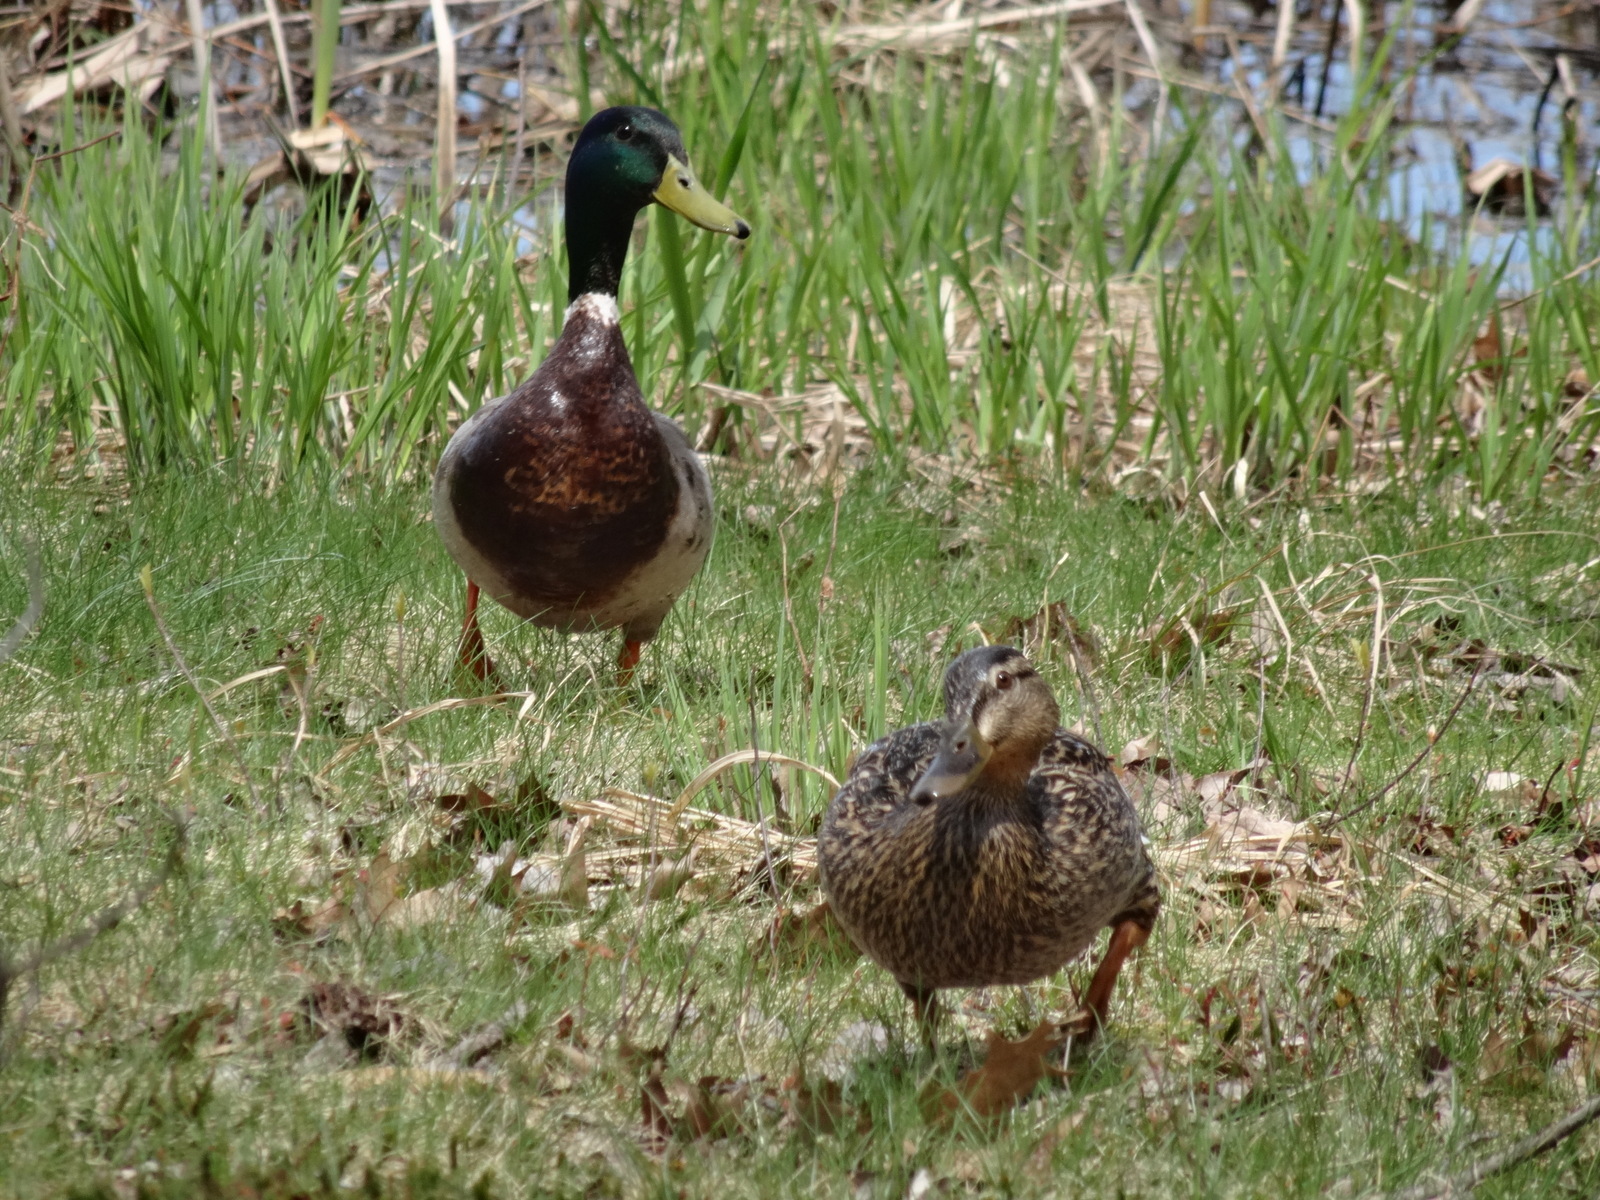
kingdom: Animalia
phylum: Chordata
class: Aves
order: Anseriformes
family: Anatidae
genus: Anas
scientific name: Anas platyrhynchos
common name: Mallard
